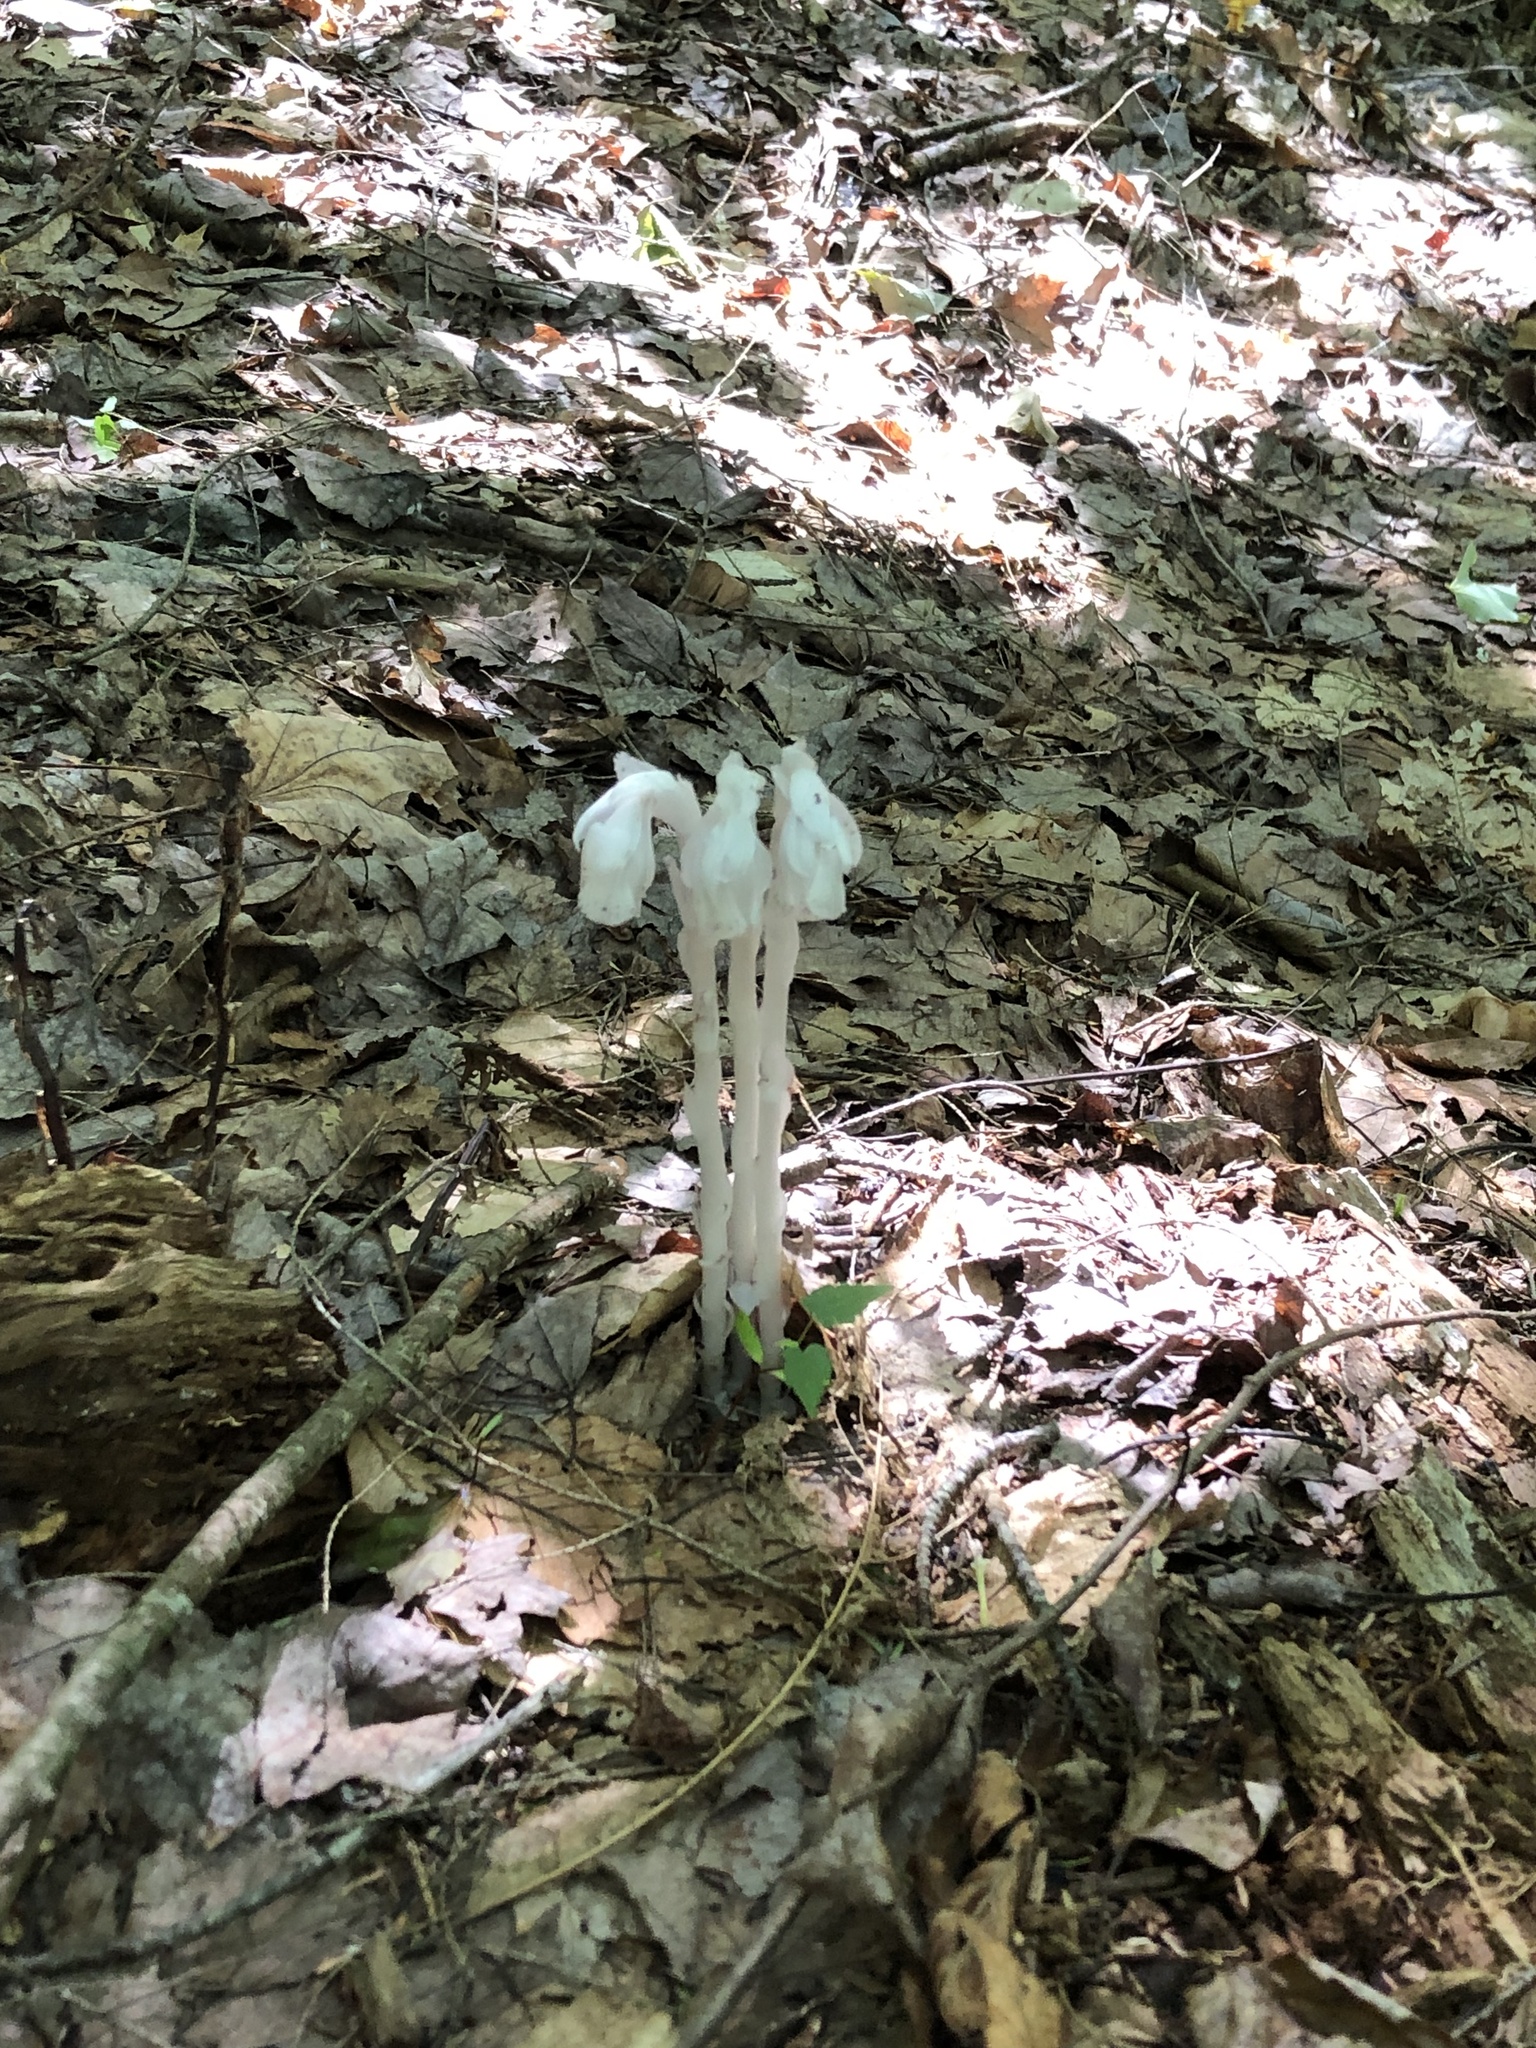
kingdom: Plantae
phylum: Tracheophyta
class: Magnoliopsida
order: Ericales
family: Ericaceae
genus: Monotropa
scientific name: Monotropa uniflora
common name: Convulsion root
